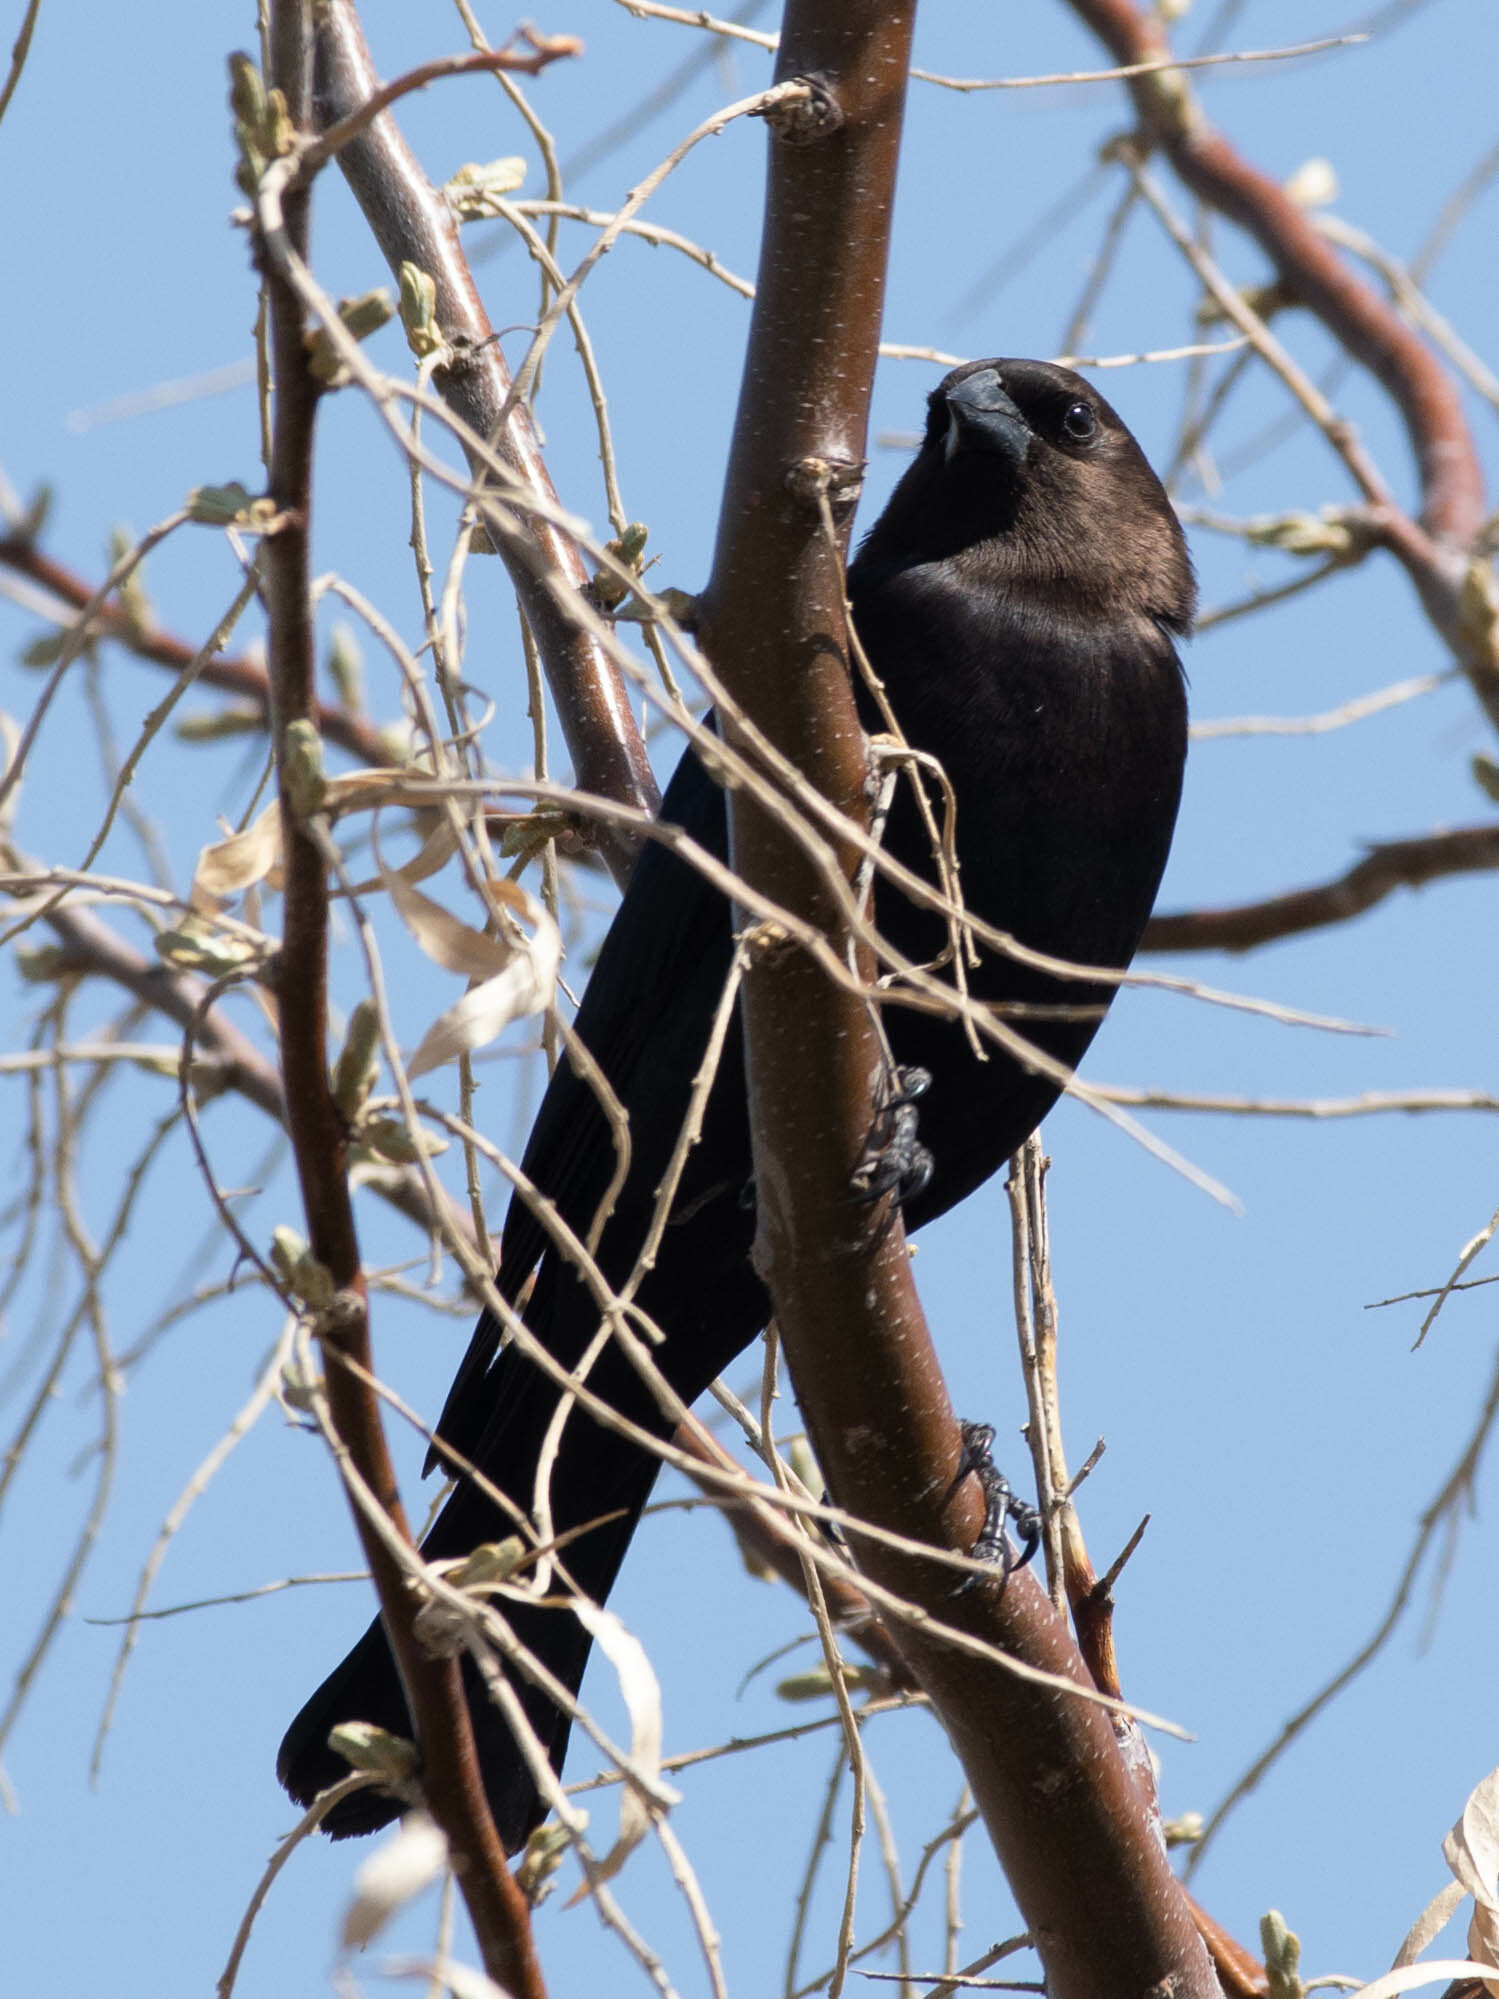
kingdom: Animalia
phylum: Chordata
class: Aves
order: Passeriformes
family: Icteridae
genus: Molothrus
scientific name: Molothrus ater
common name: Brown-headed cowbird
